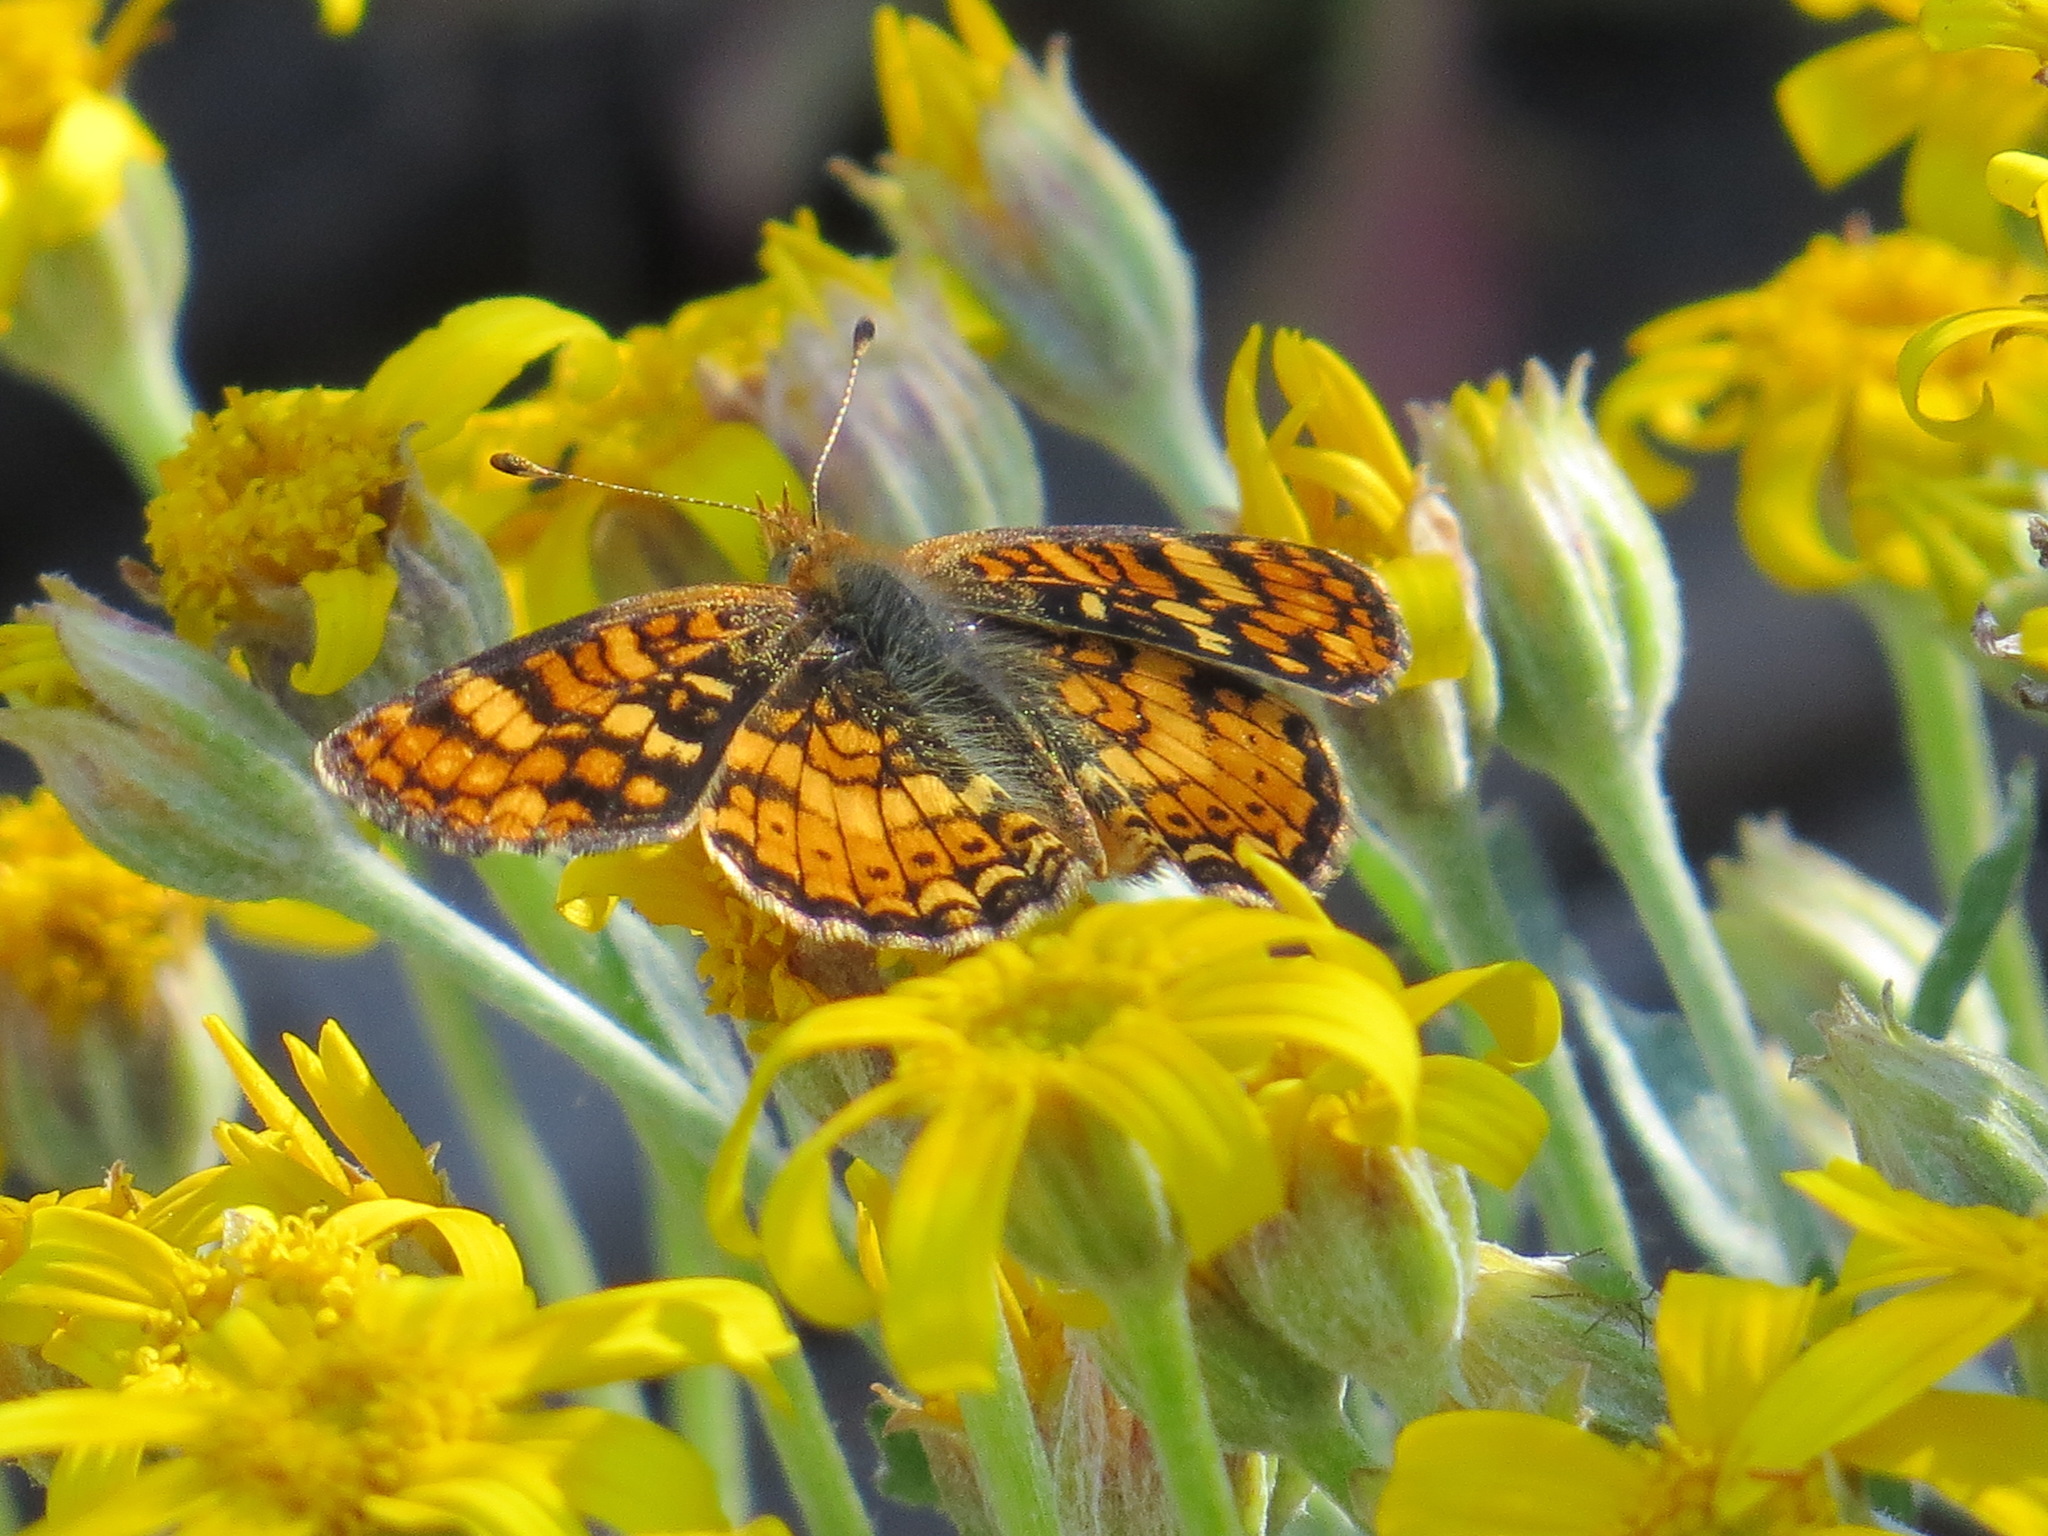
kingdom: Animalia
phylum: Arthropoda
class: Insecta
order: Lepidoptera
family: Nymphalidae
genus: Eresia
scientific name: Eresia aveyrona
